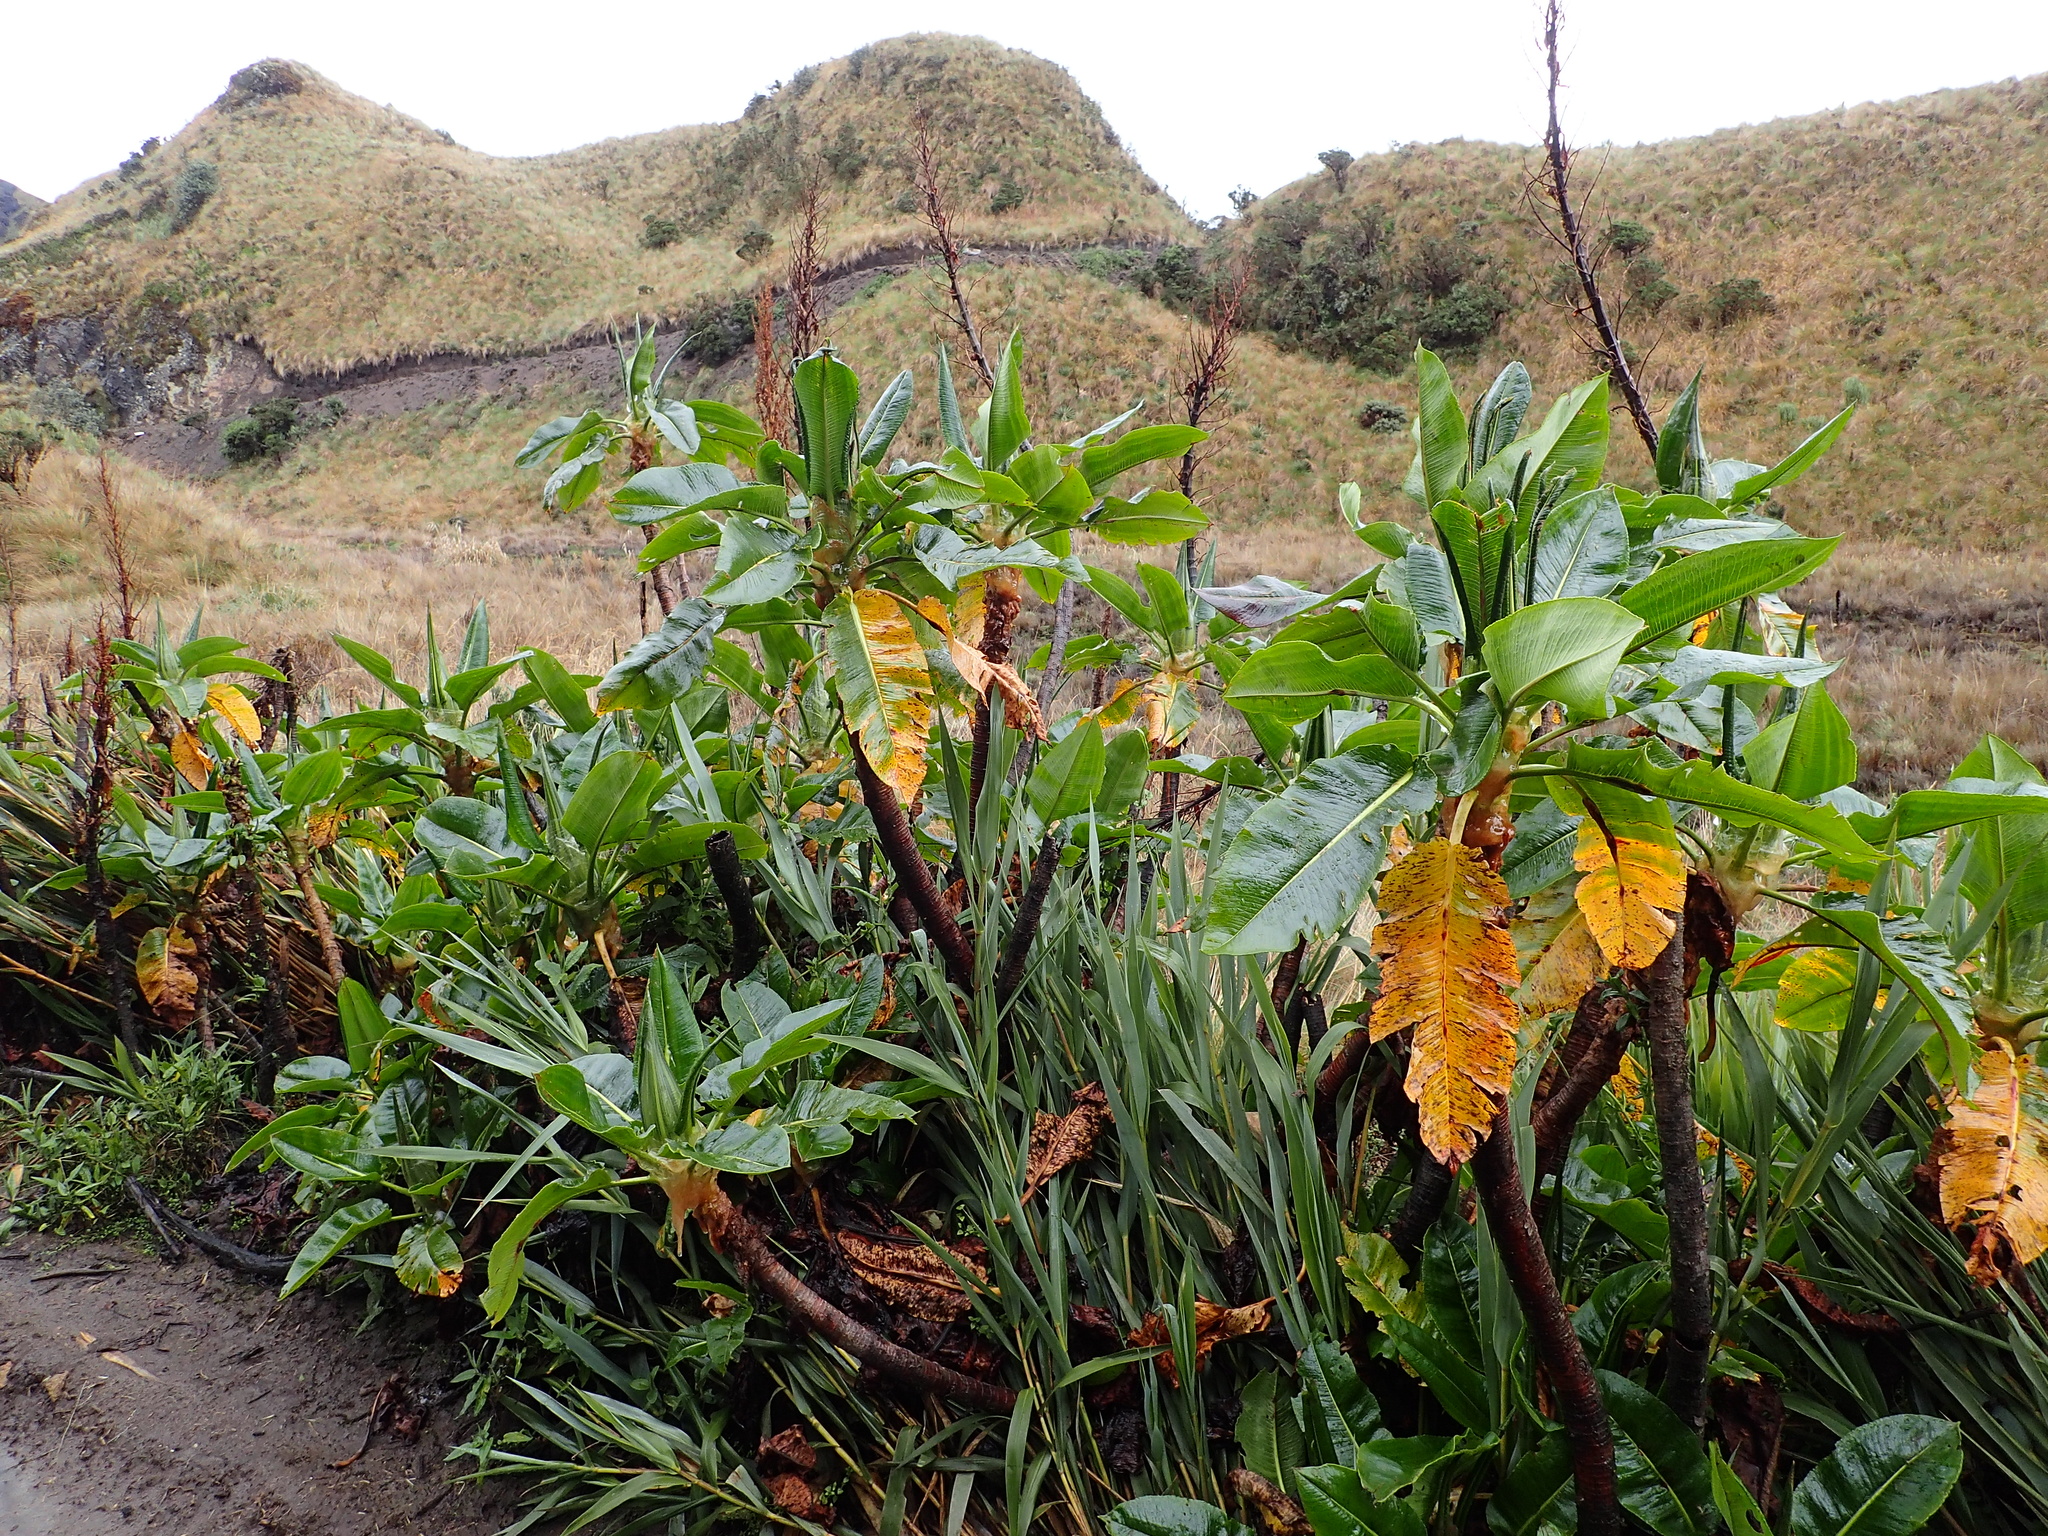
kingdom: Plantae
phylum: Tracheophyta
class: Magnoliopsida
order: Caryophyllales
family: Polygonaceae
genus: Rumex
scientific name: Rumex tolimensis
